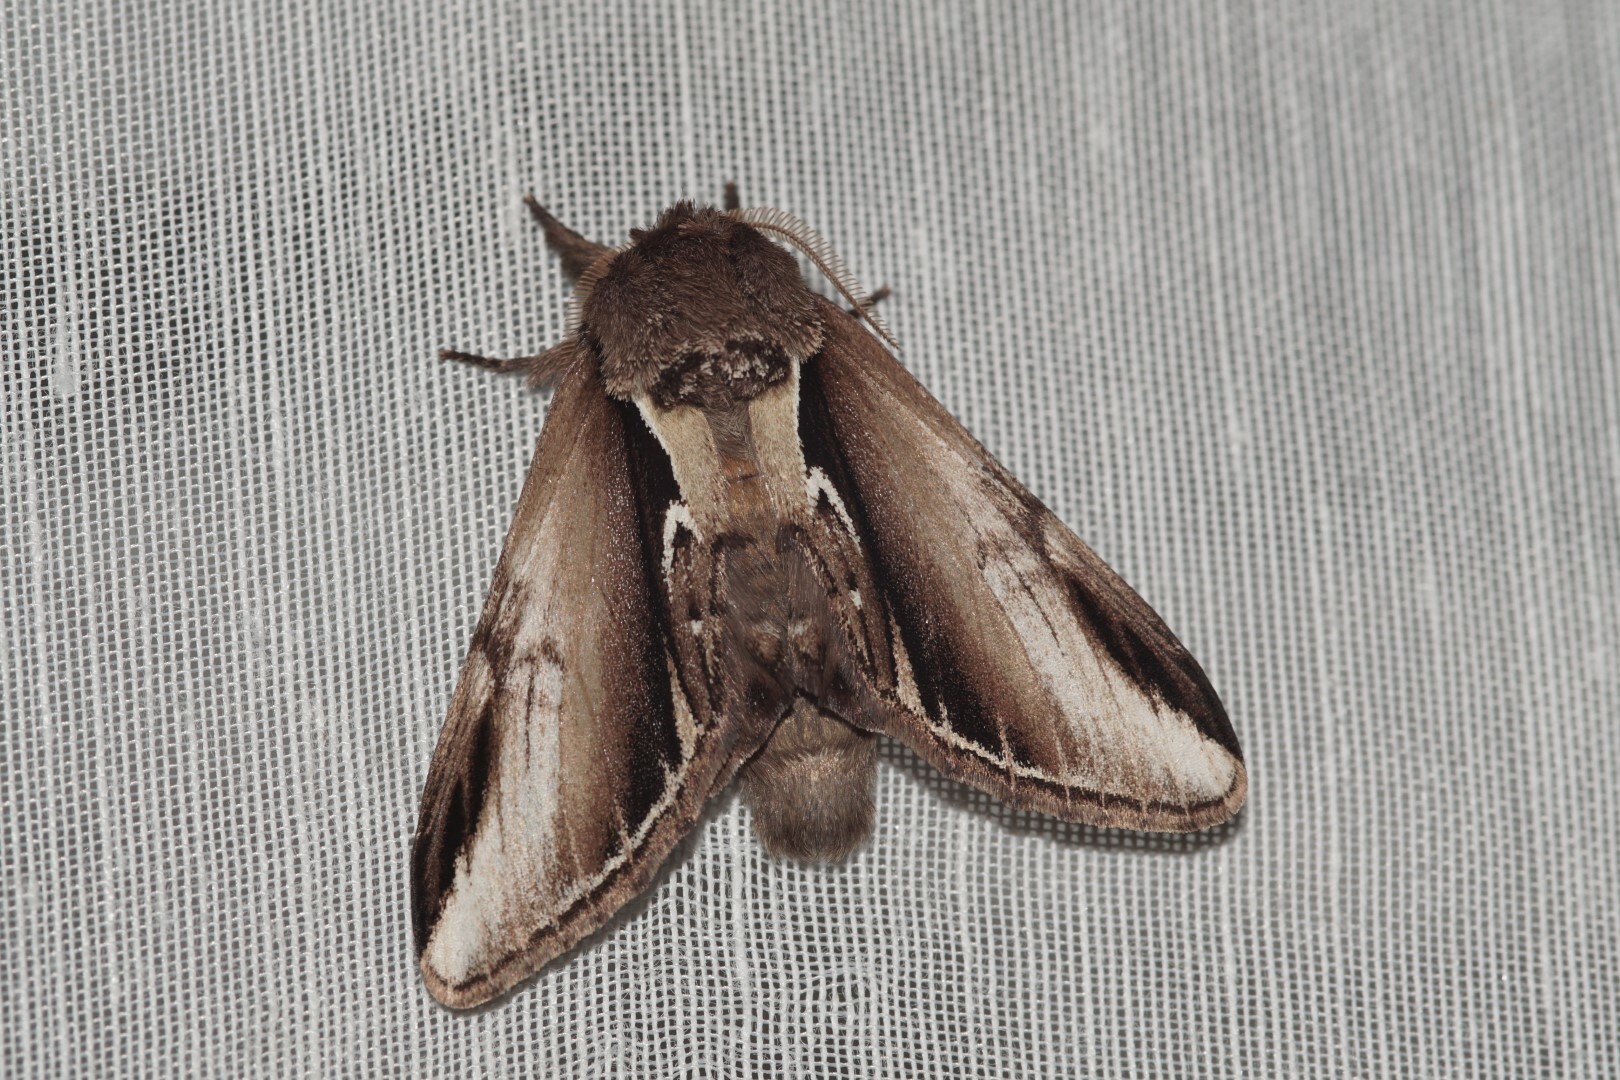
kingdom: Animalia
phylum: Arthropoda
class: Insecta
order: Lepidoptera
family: Notodontidae
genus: Pheosia
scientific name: Pheosia tremula
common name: Swallow prominent
